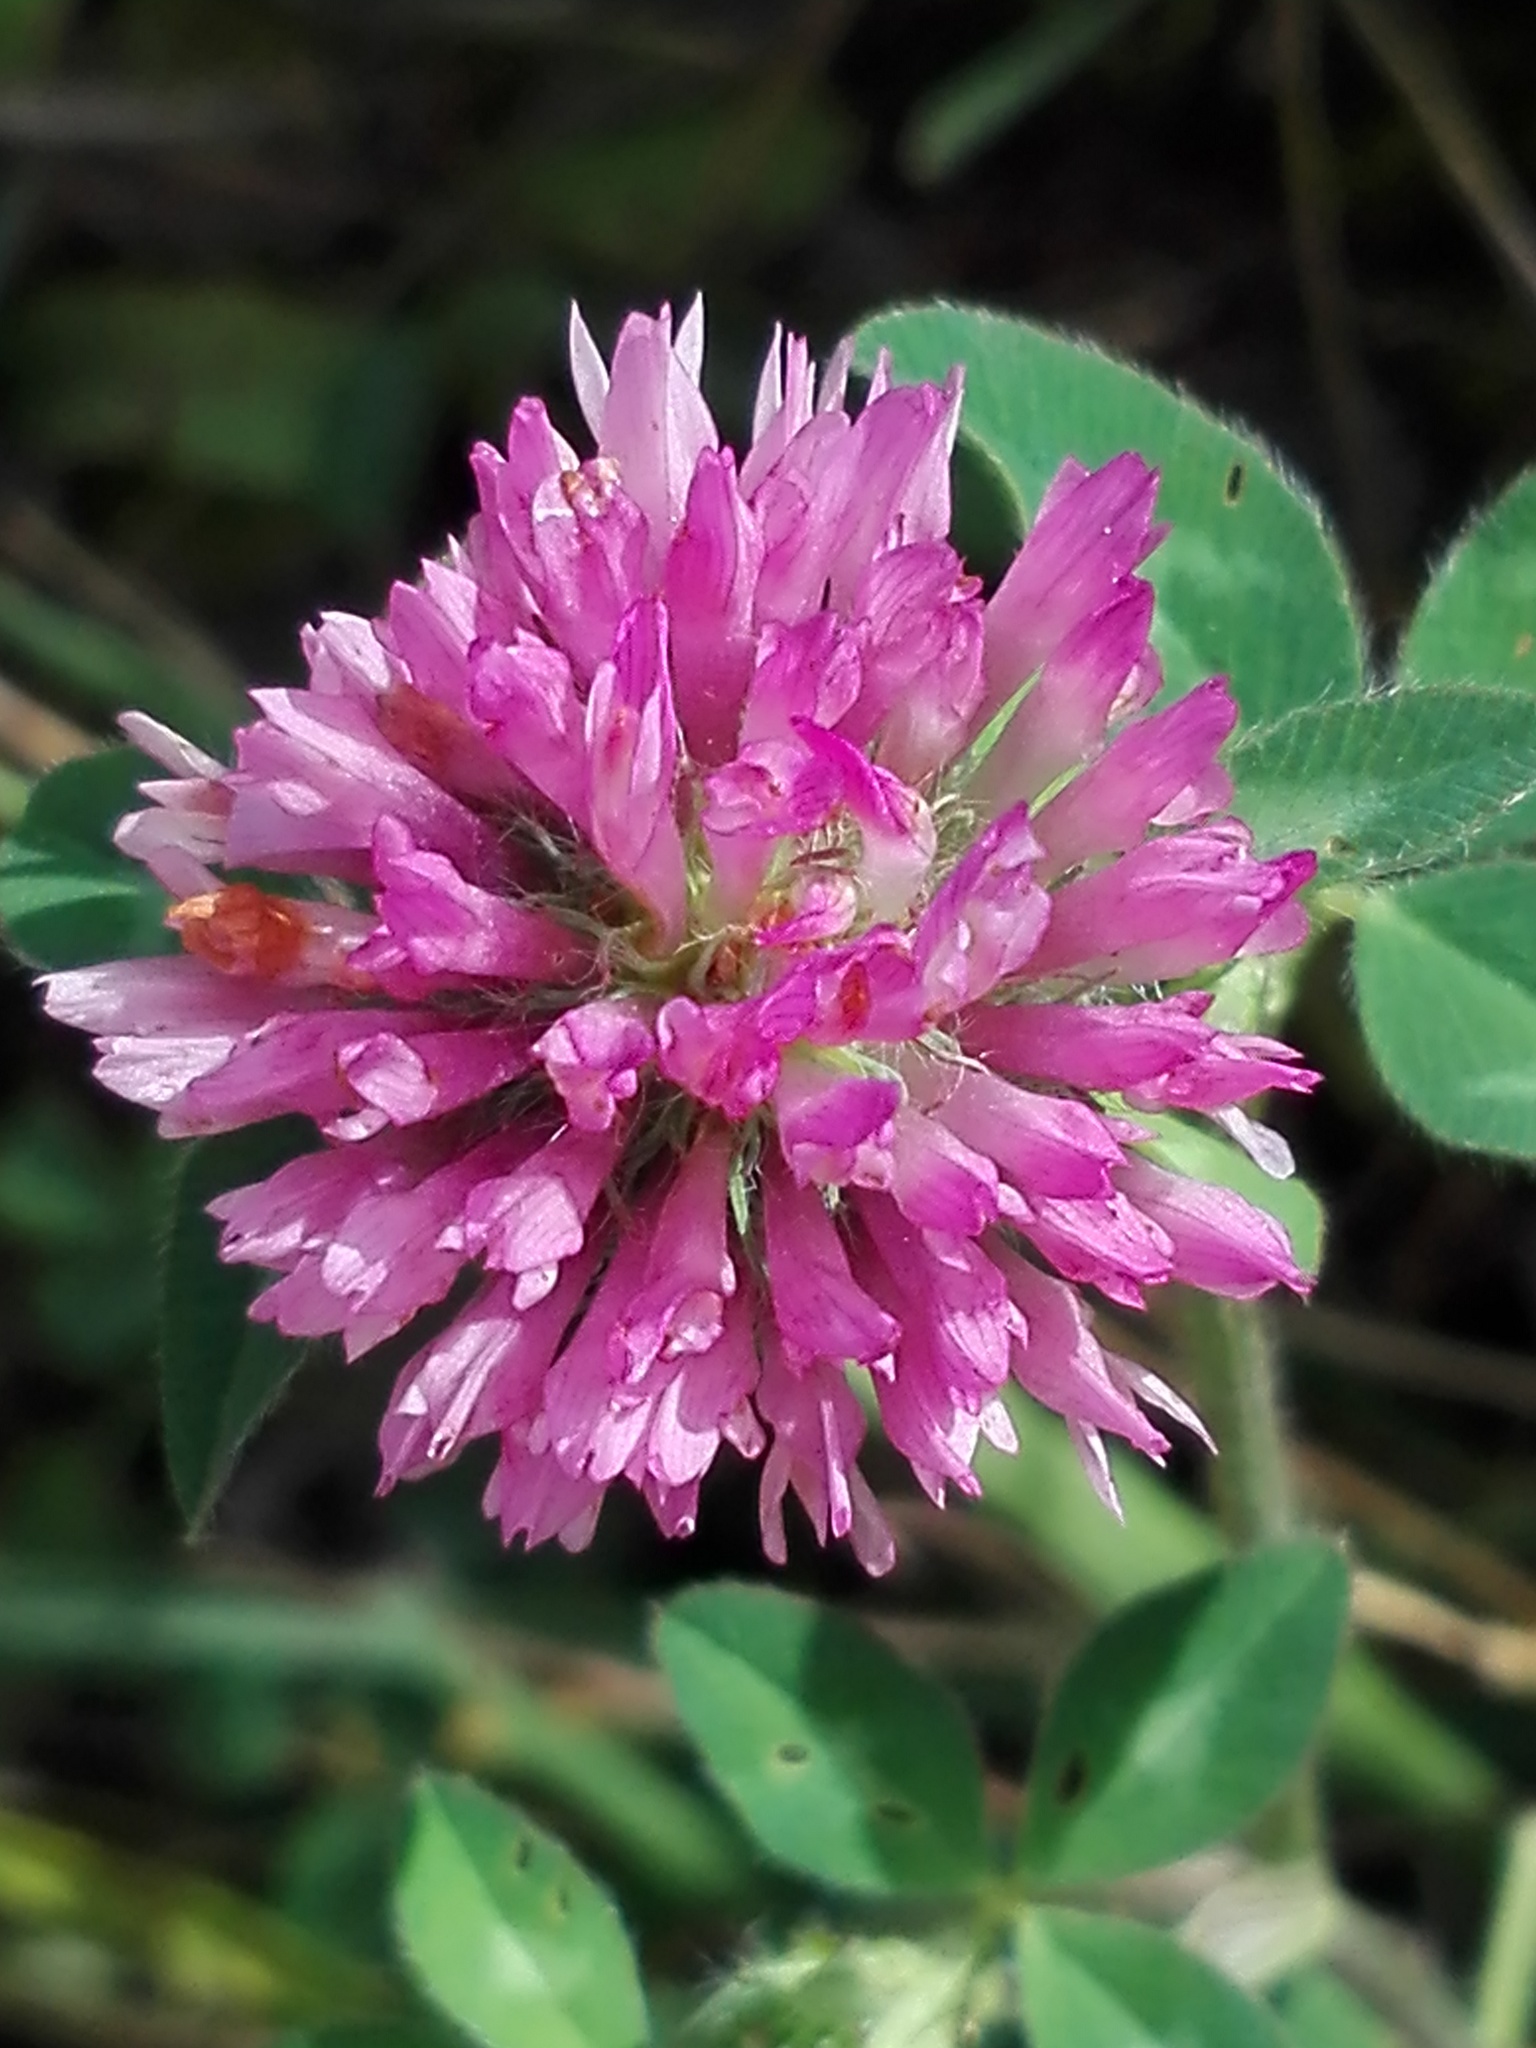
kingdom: Plantae
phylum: Tracheophyta
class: Magnoliopsida
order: Fabales
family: Fabaceae
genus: Trifolium
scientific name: Trifolium pratense
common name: Red clover
